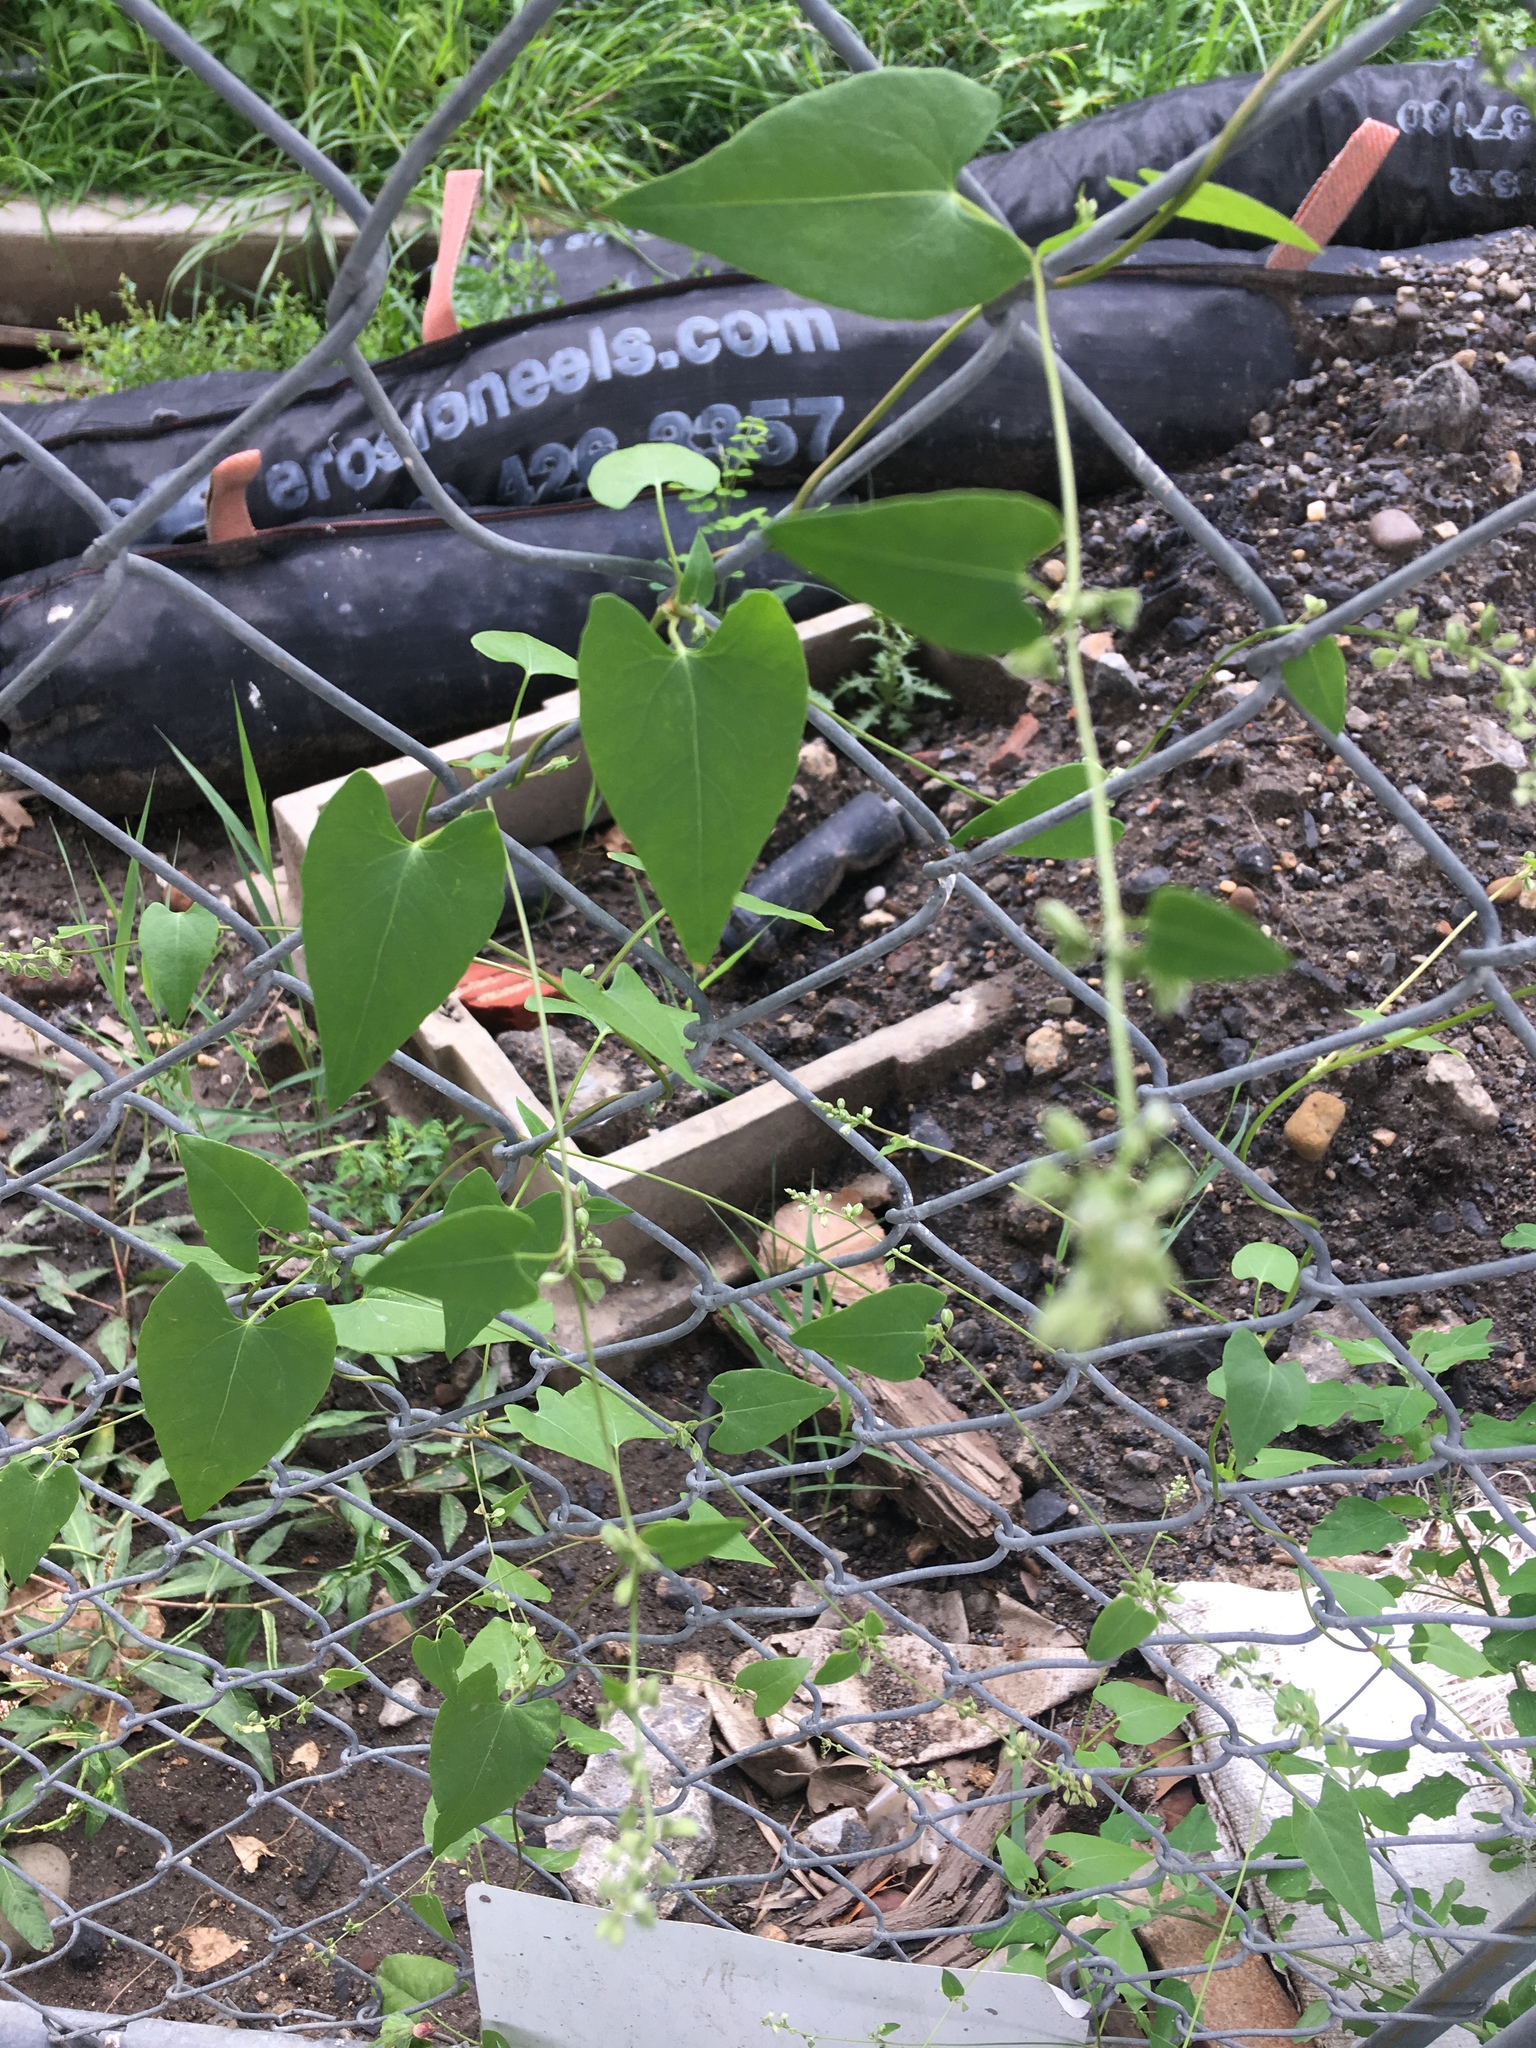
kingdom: Plantae
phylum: Tracheophyta
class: Magnoliopsida
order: Caryophyllales
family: Polygonaceae
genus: Fallopia
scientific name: Fallopia convolvulus
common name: Black bindweed
